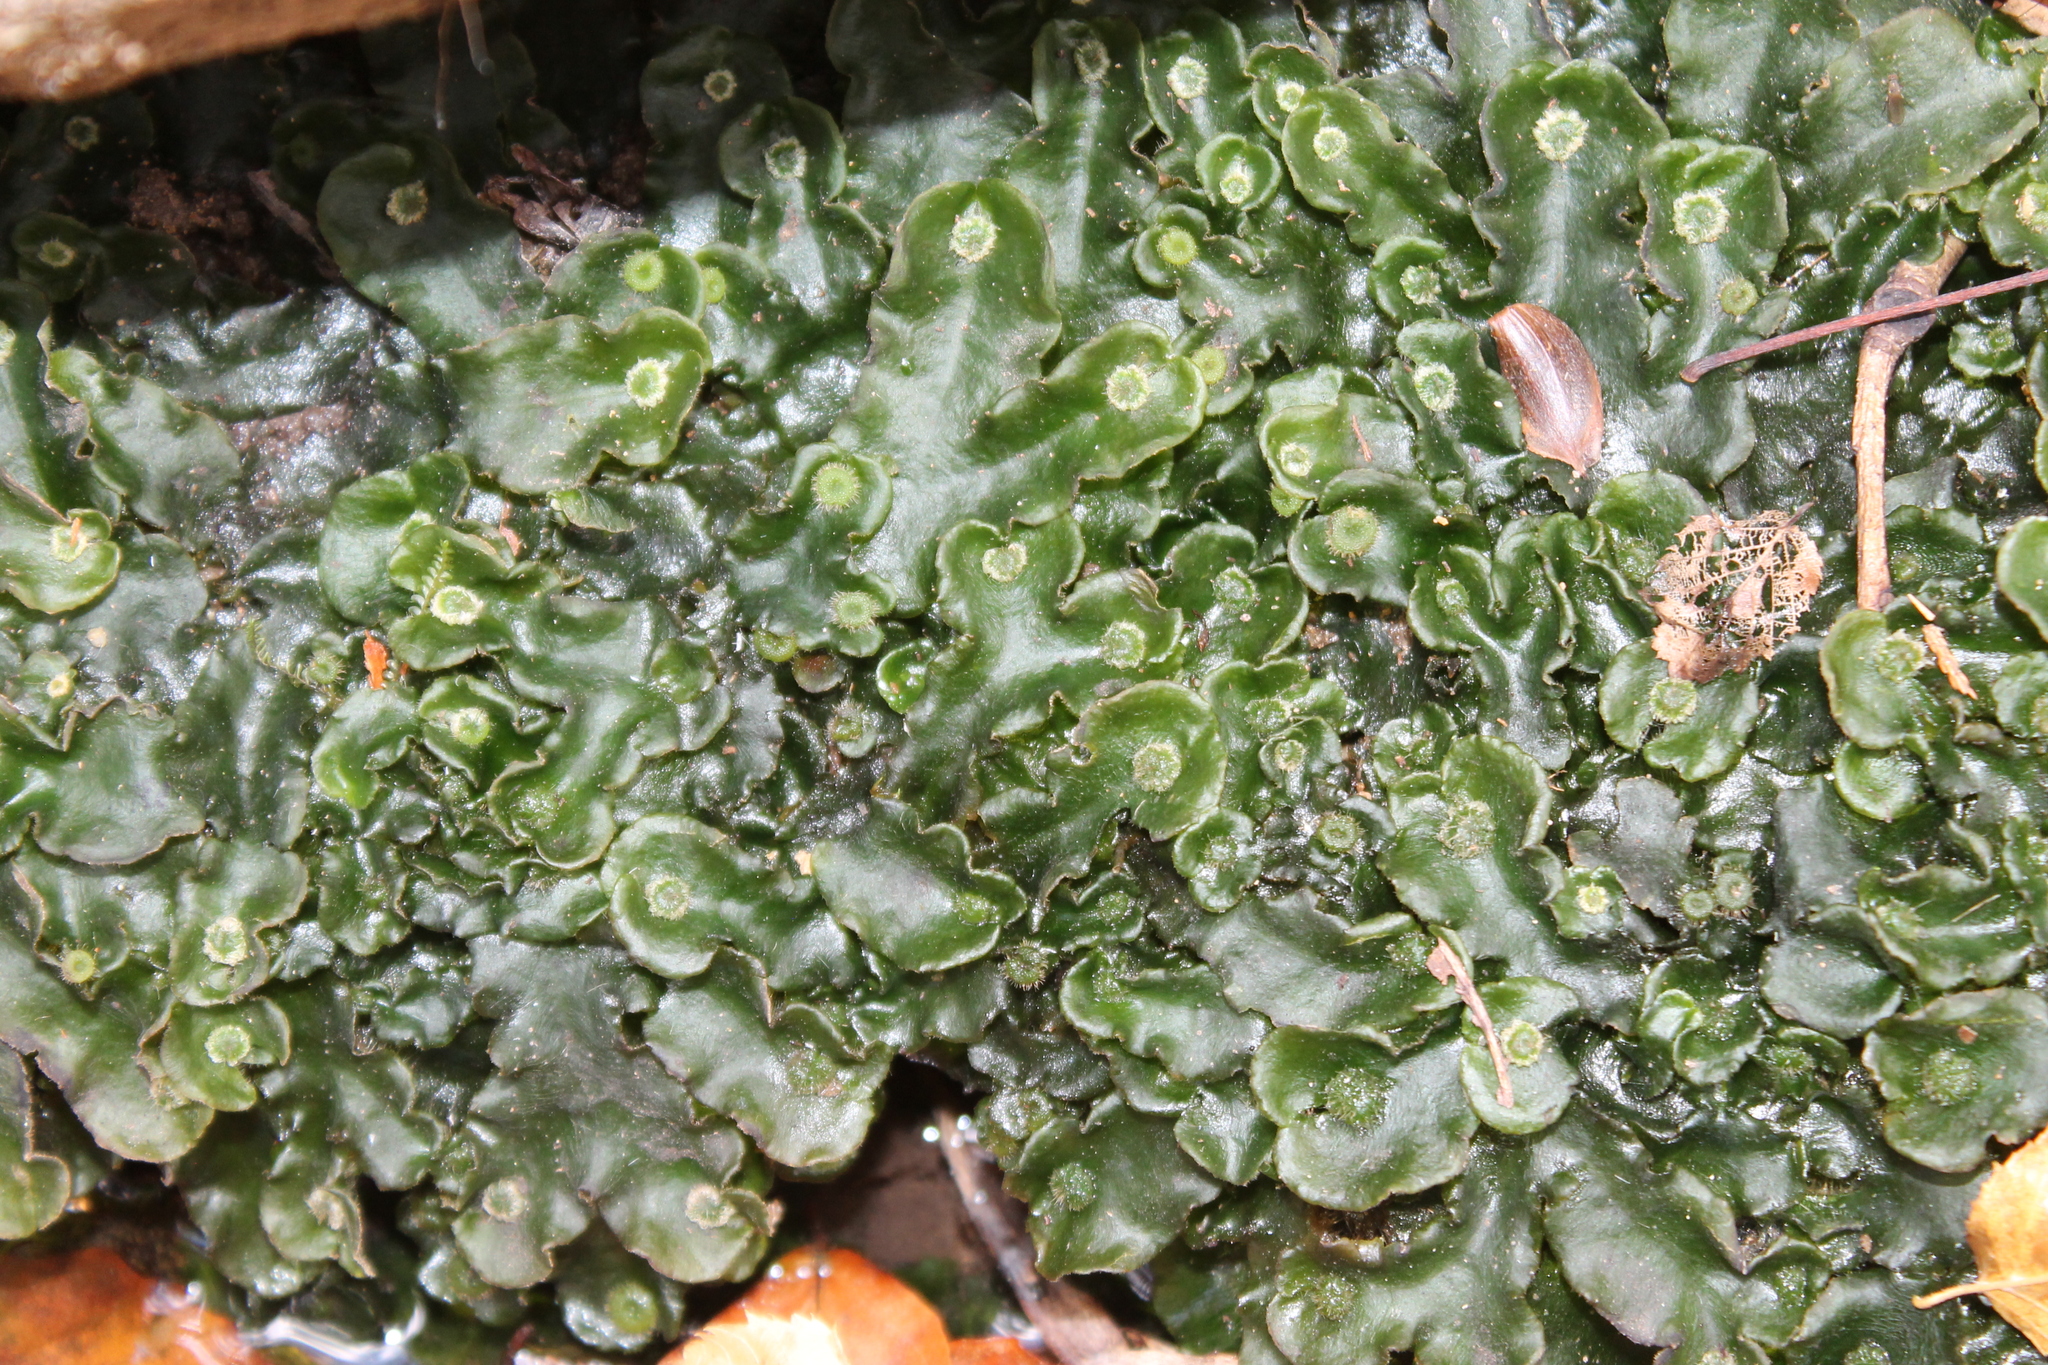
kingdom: Plantae
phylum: Marchantiophyta
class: Marchantiopsida
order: Marchantiales
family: Dumortieraceae
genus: Dumortiera
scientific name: Dumortiera hirsuta
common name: Dumortier's liverwort
